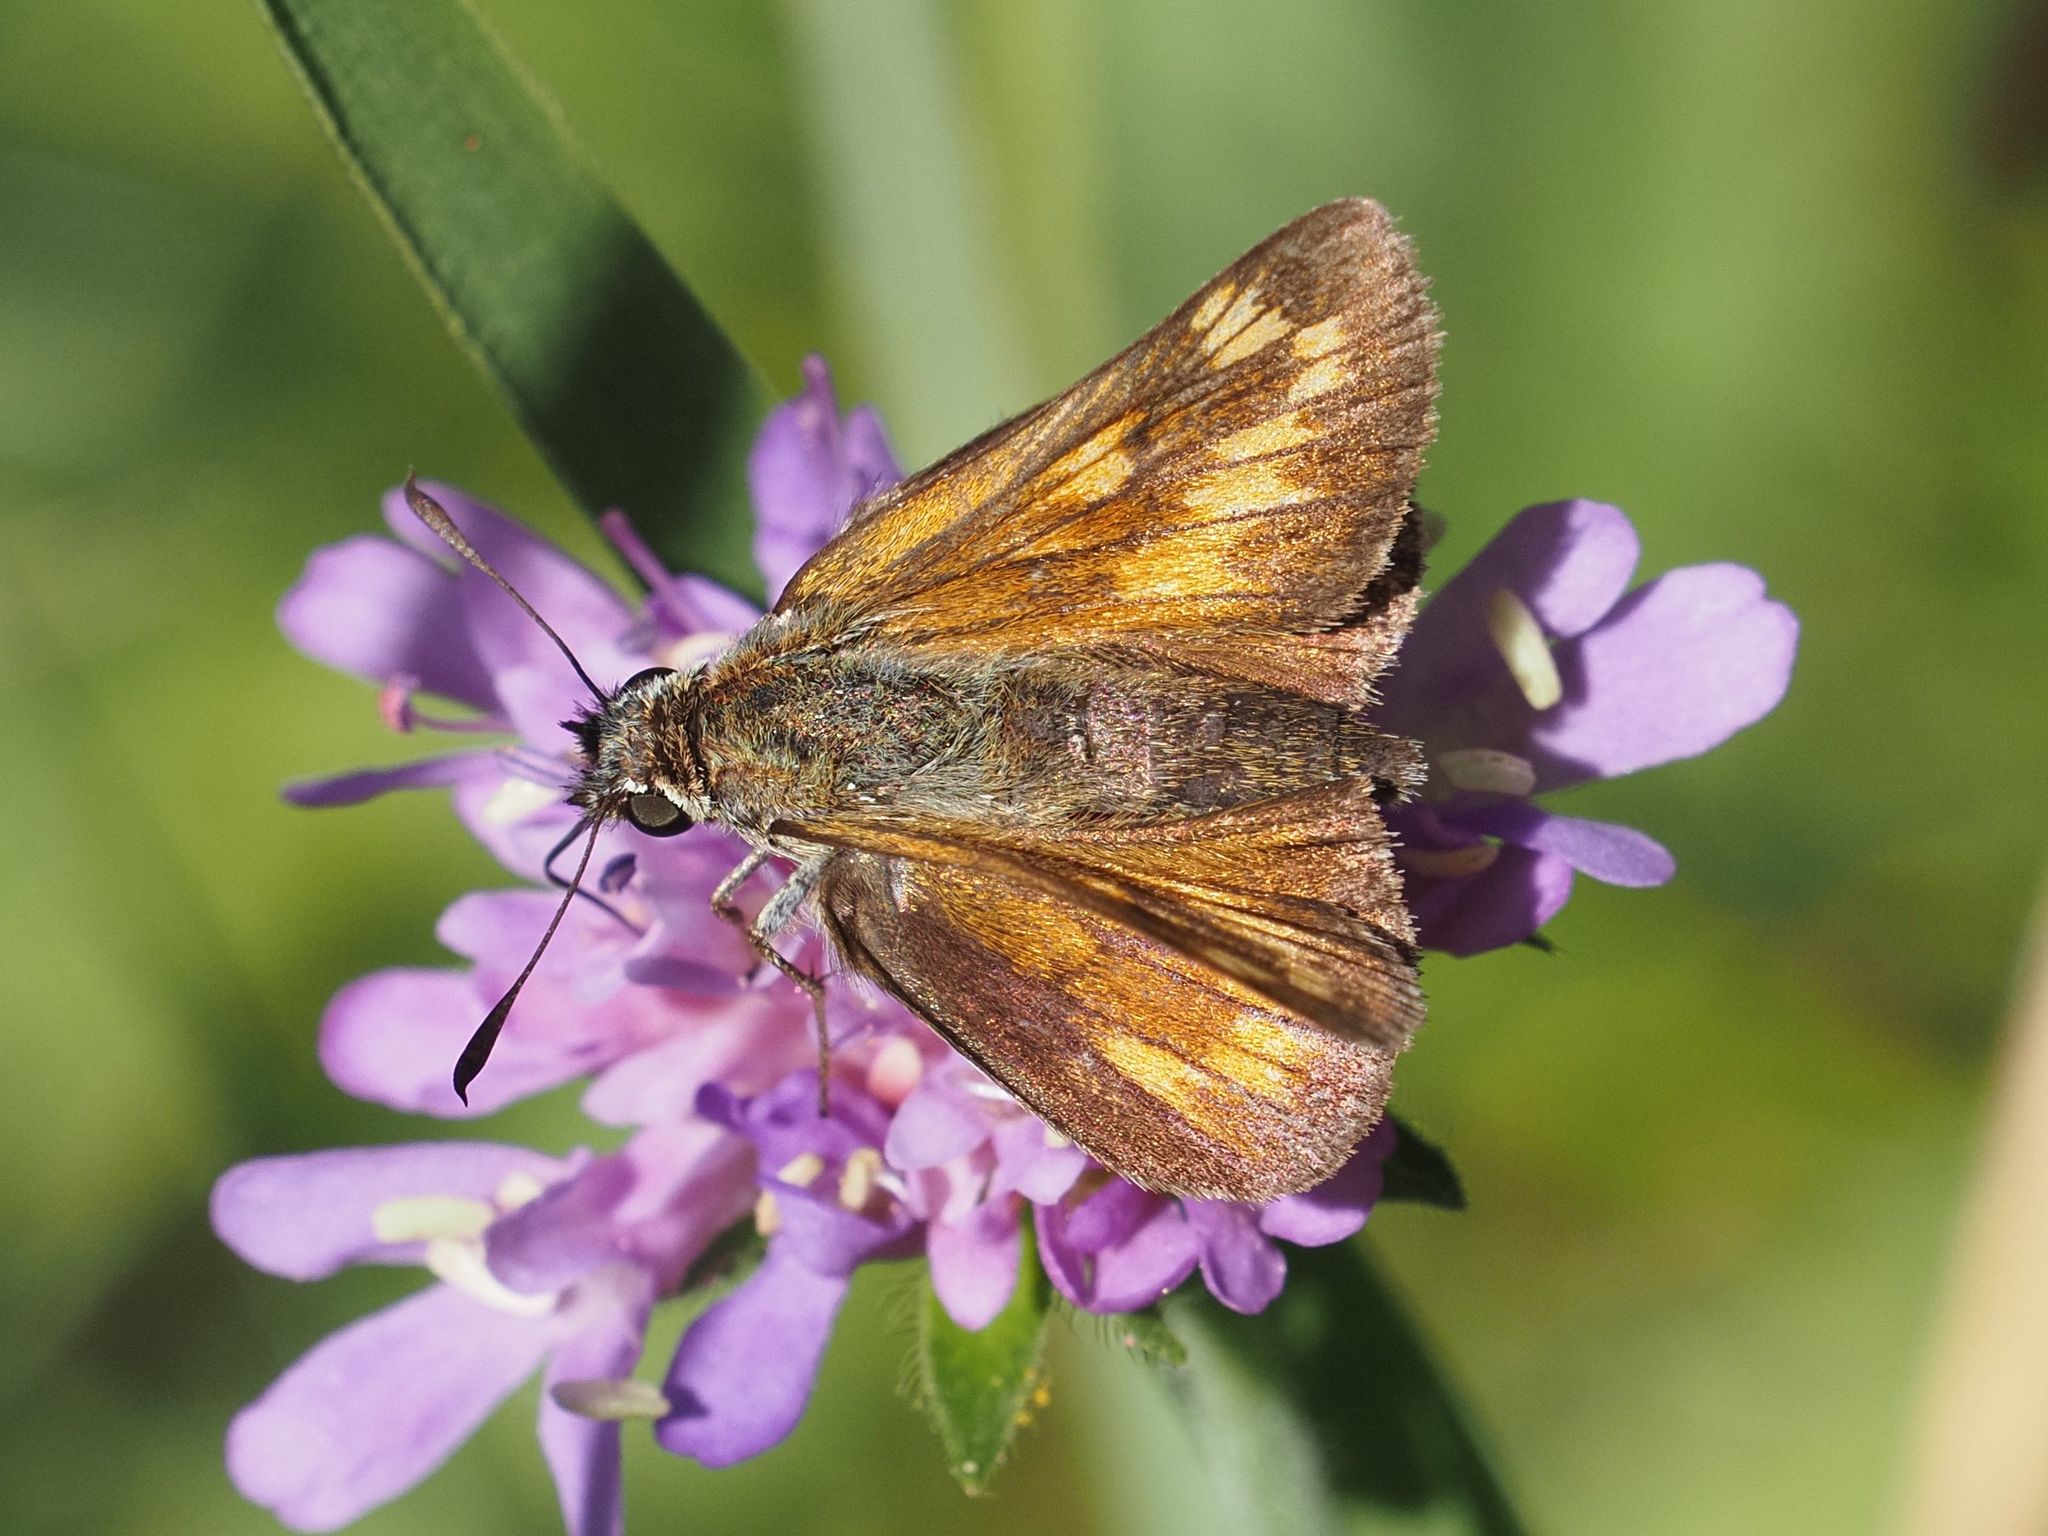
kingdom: Animalia
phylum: Arthropoda
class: Insecta
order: Lepidoptera
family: Hesperiidae
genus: Ochlodes
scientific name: Ochlodes venata
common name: Large skipper
